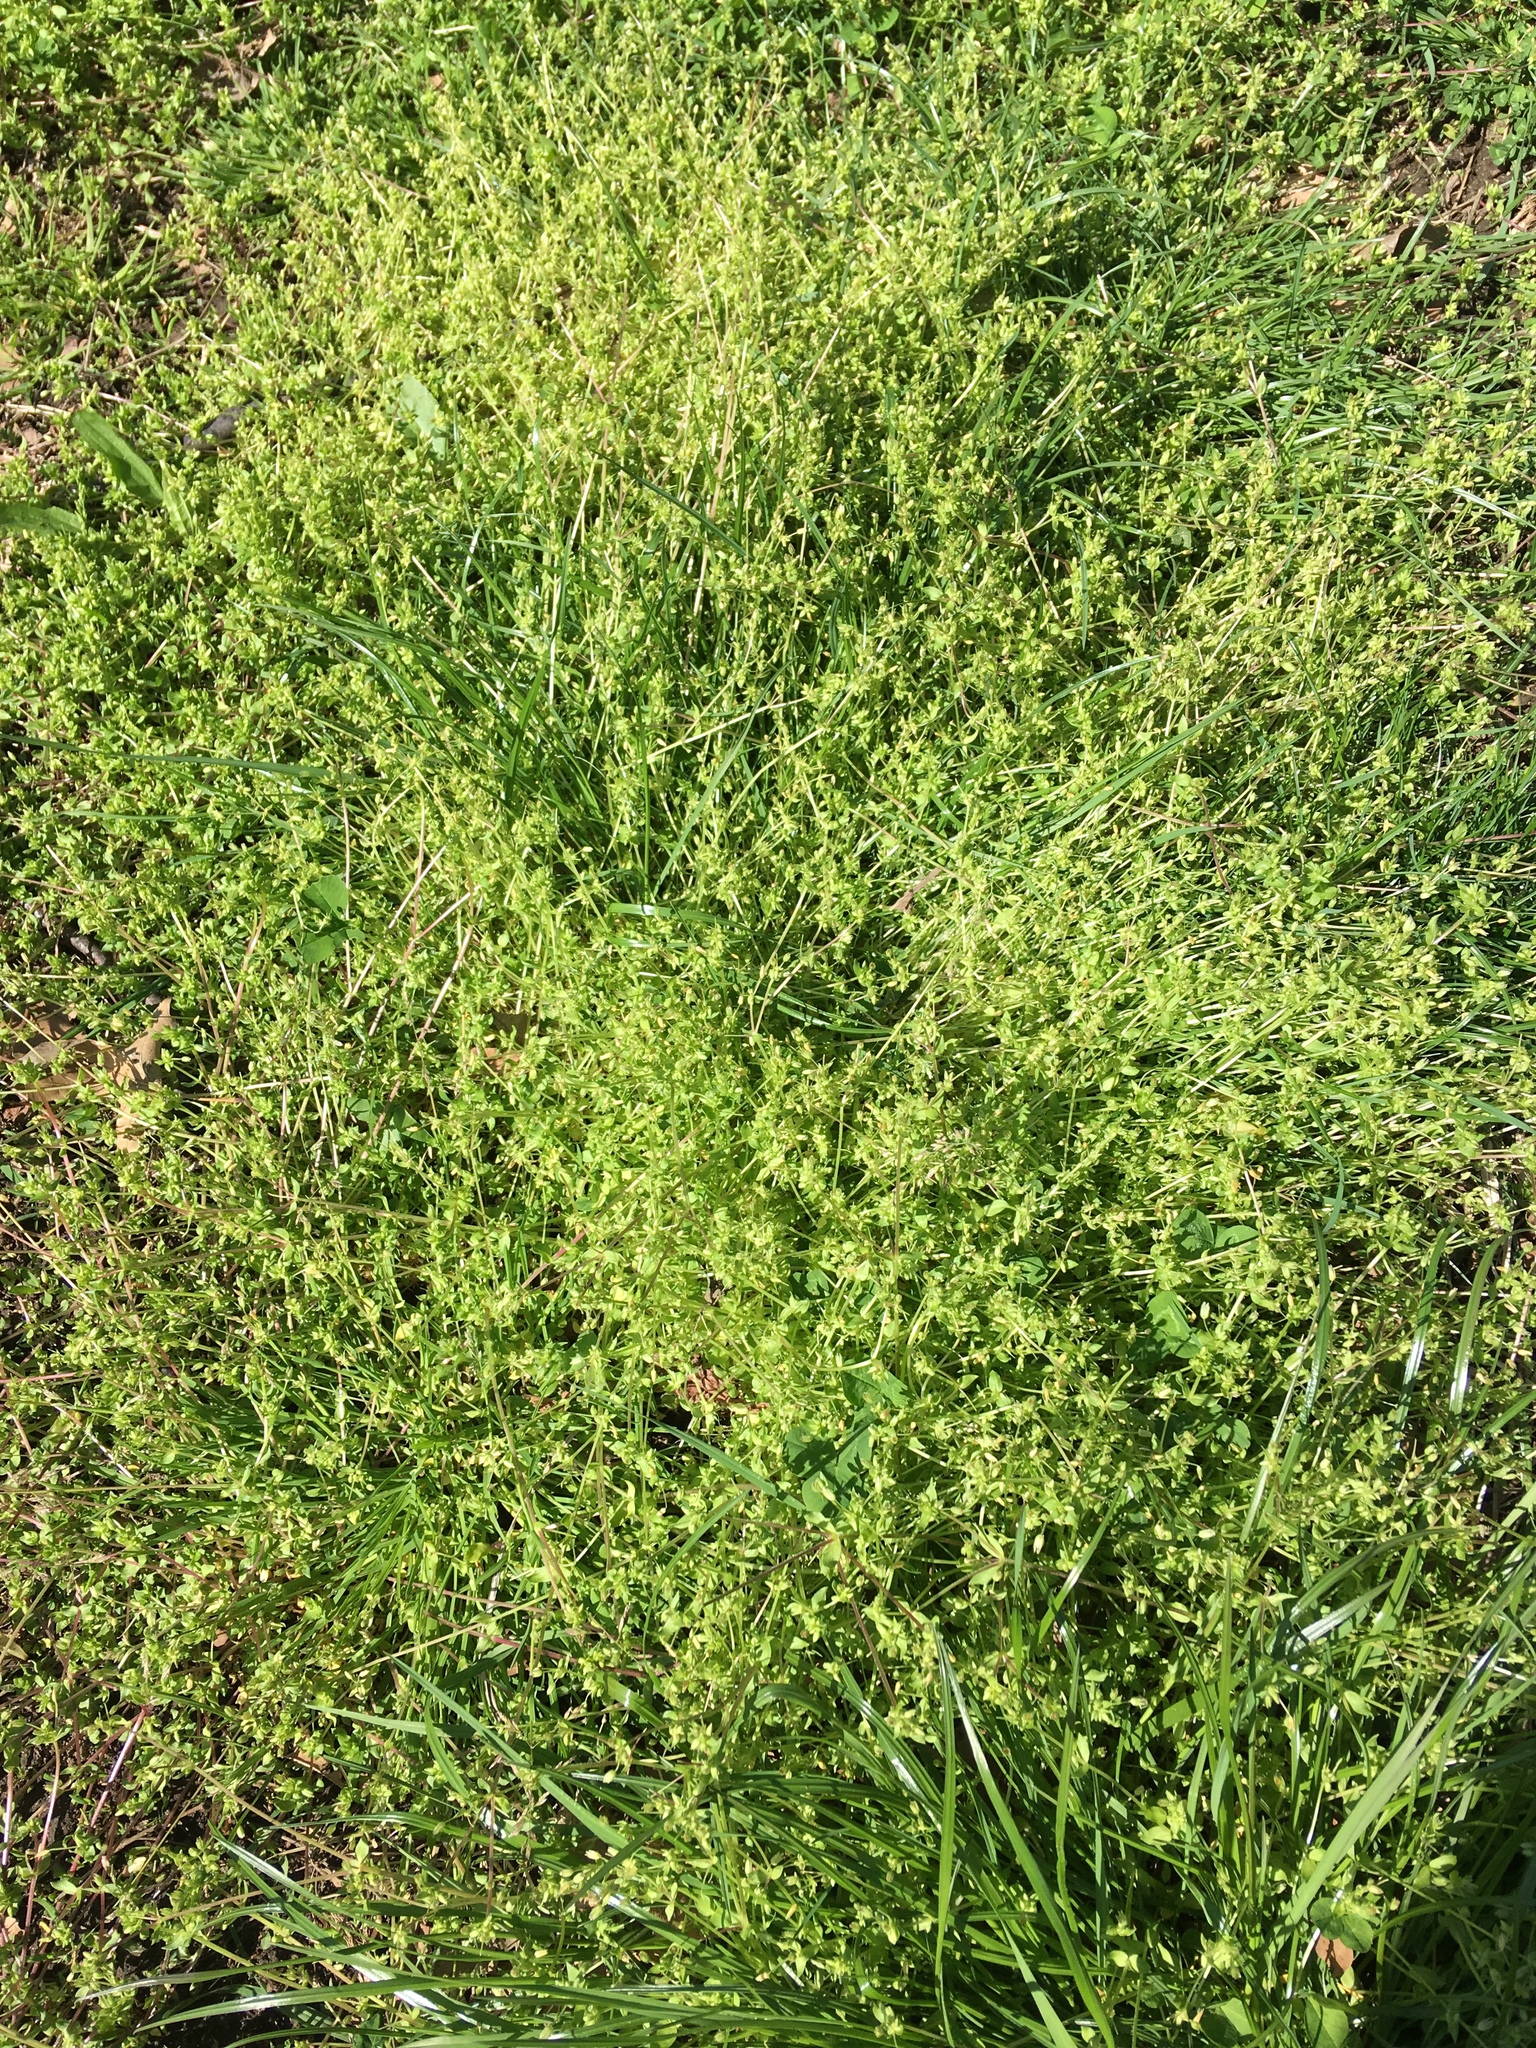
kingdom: Plantae
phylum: Tracheophyta
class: Magnoliopsida
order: Caryophyllales
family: Caryophyllaceae
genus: Stellaria
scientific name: Stellaria apetala
